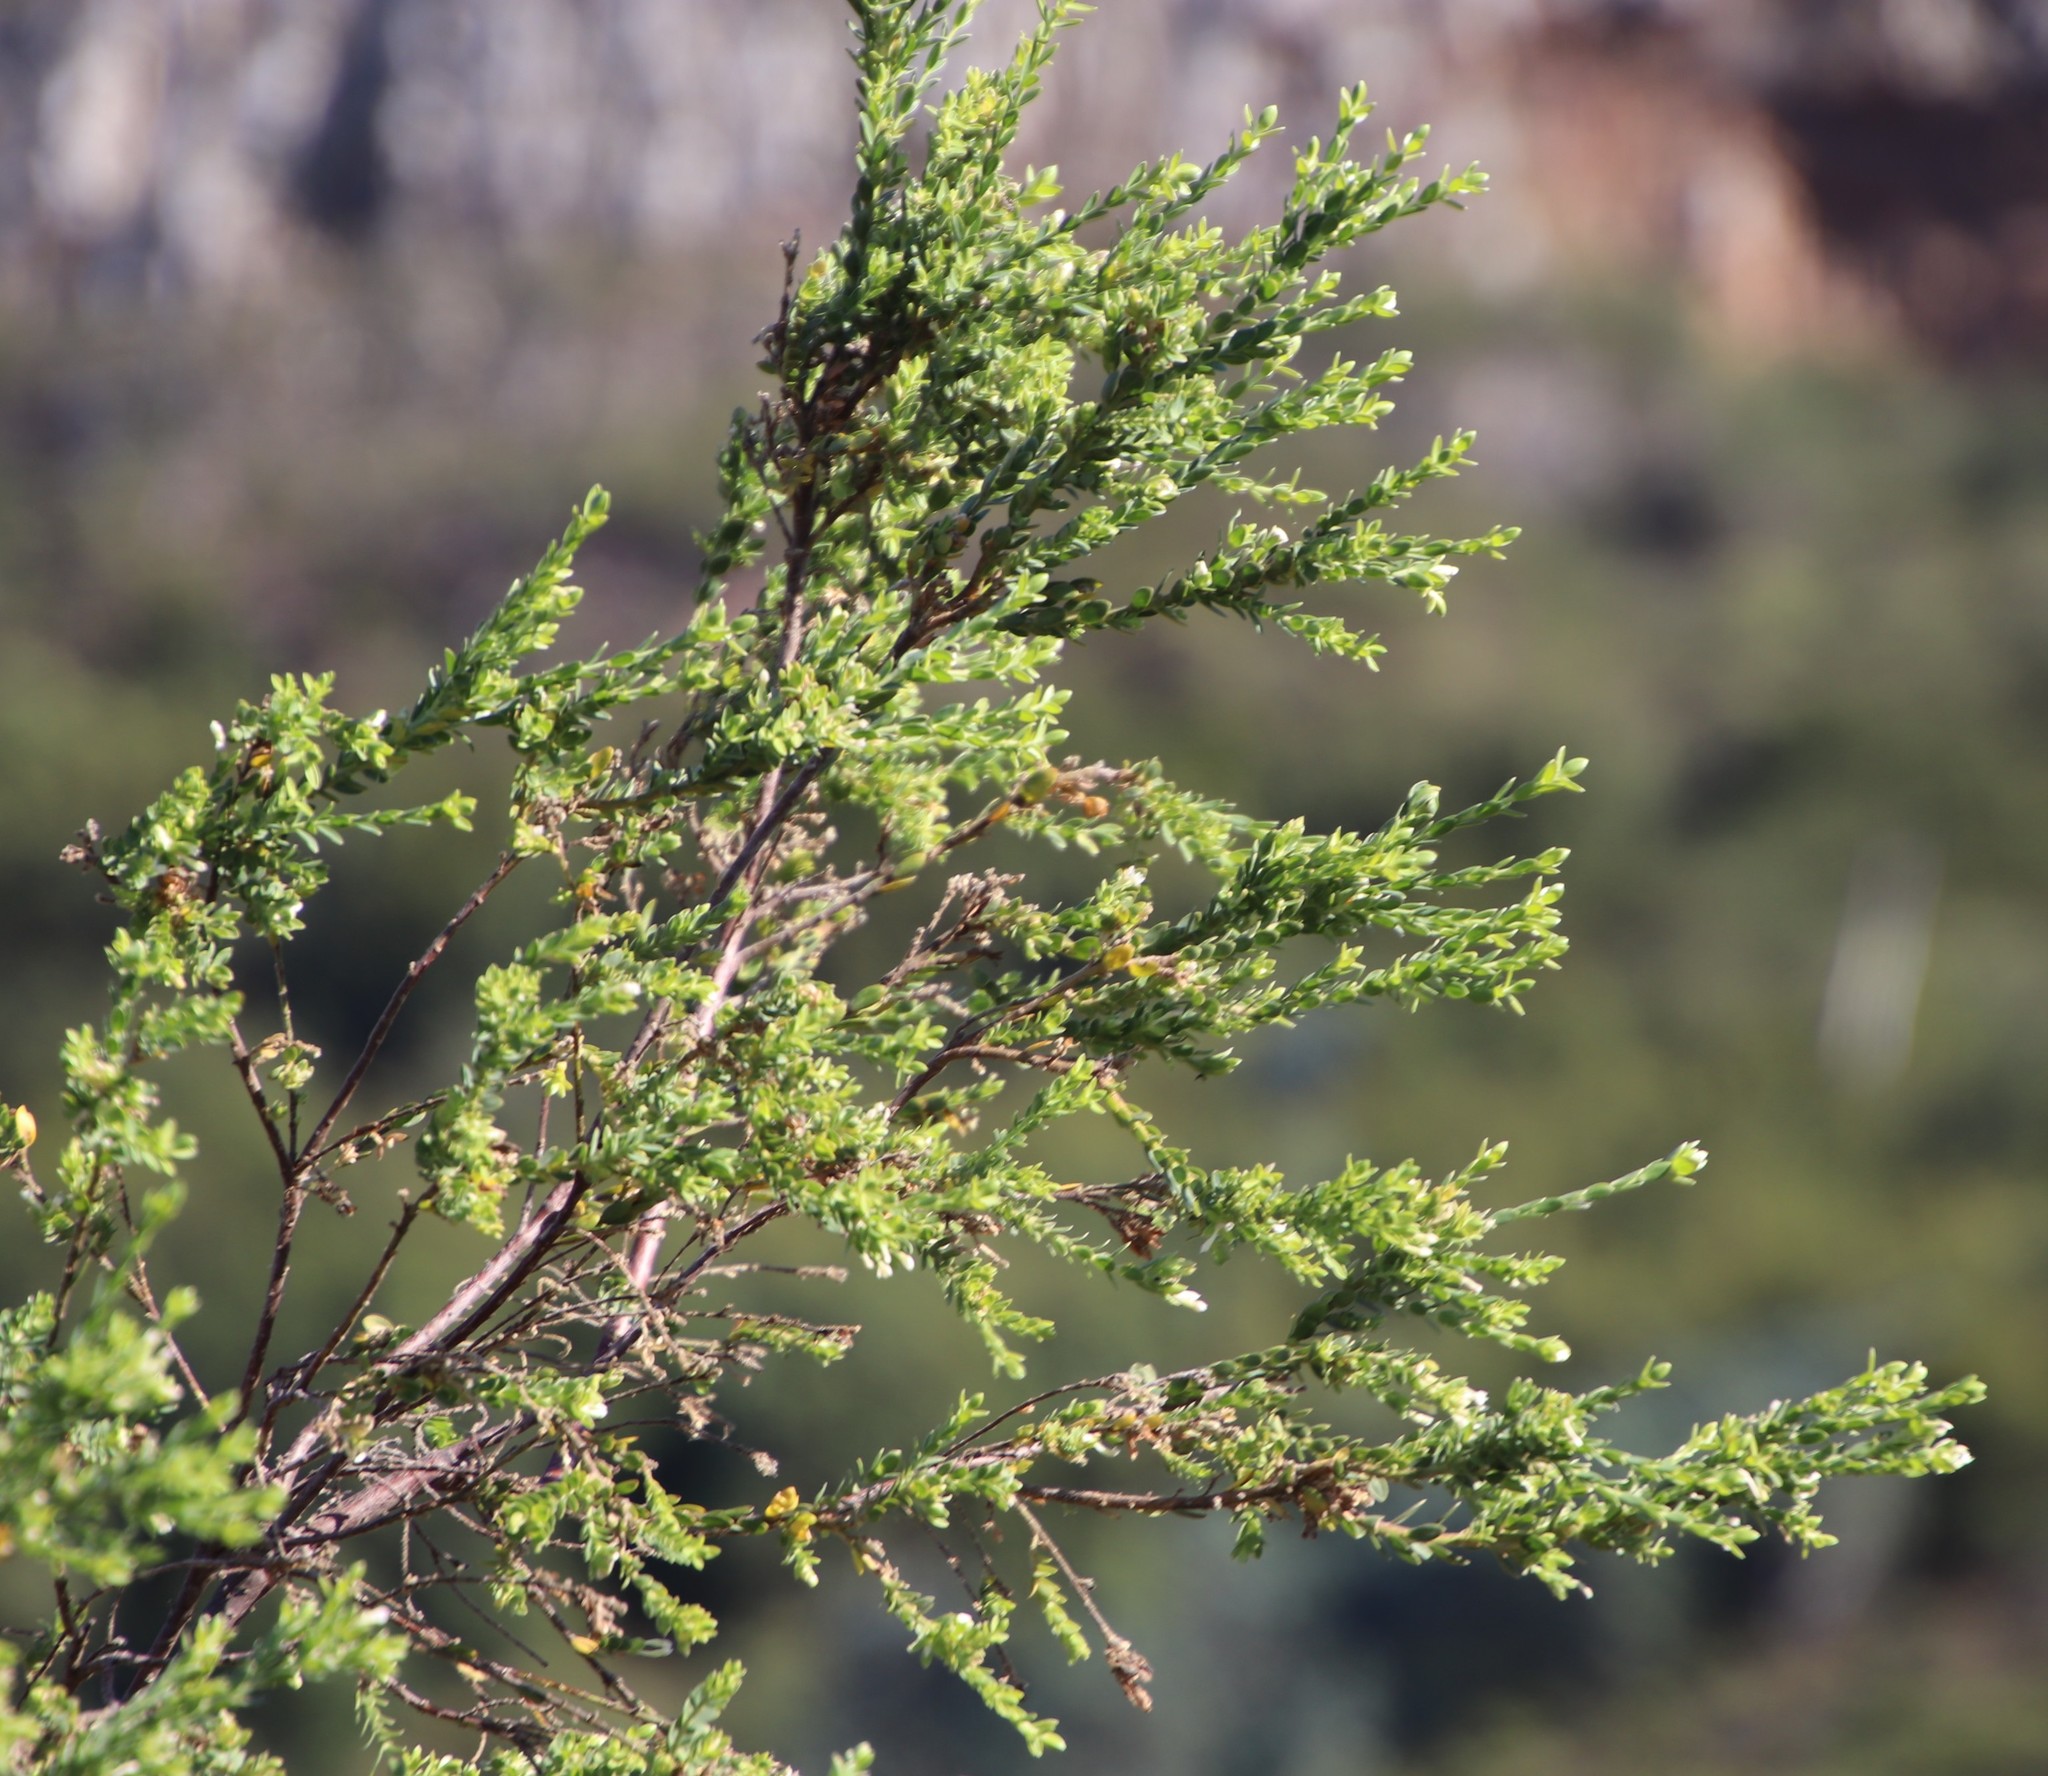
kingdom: Plantae
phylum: Tracheophyta
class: Magnoliopsida
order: Malvales
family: Thymelaeaceae
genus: Gnidia
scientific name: Gnidia sericea
